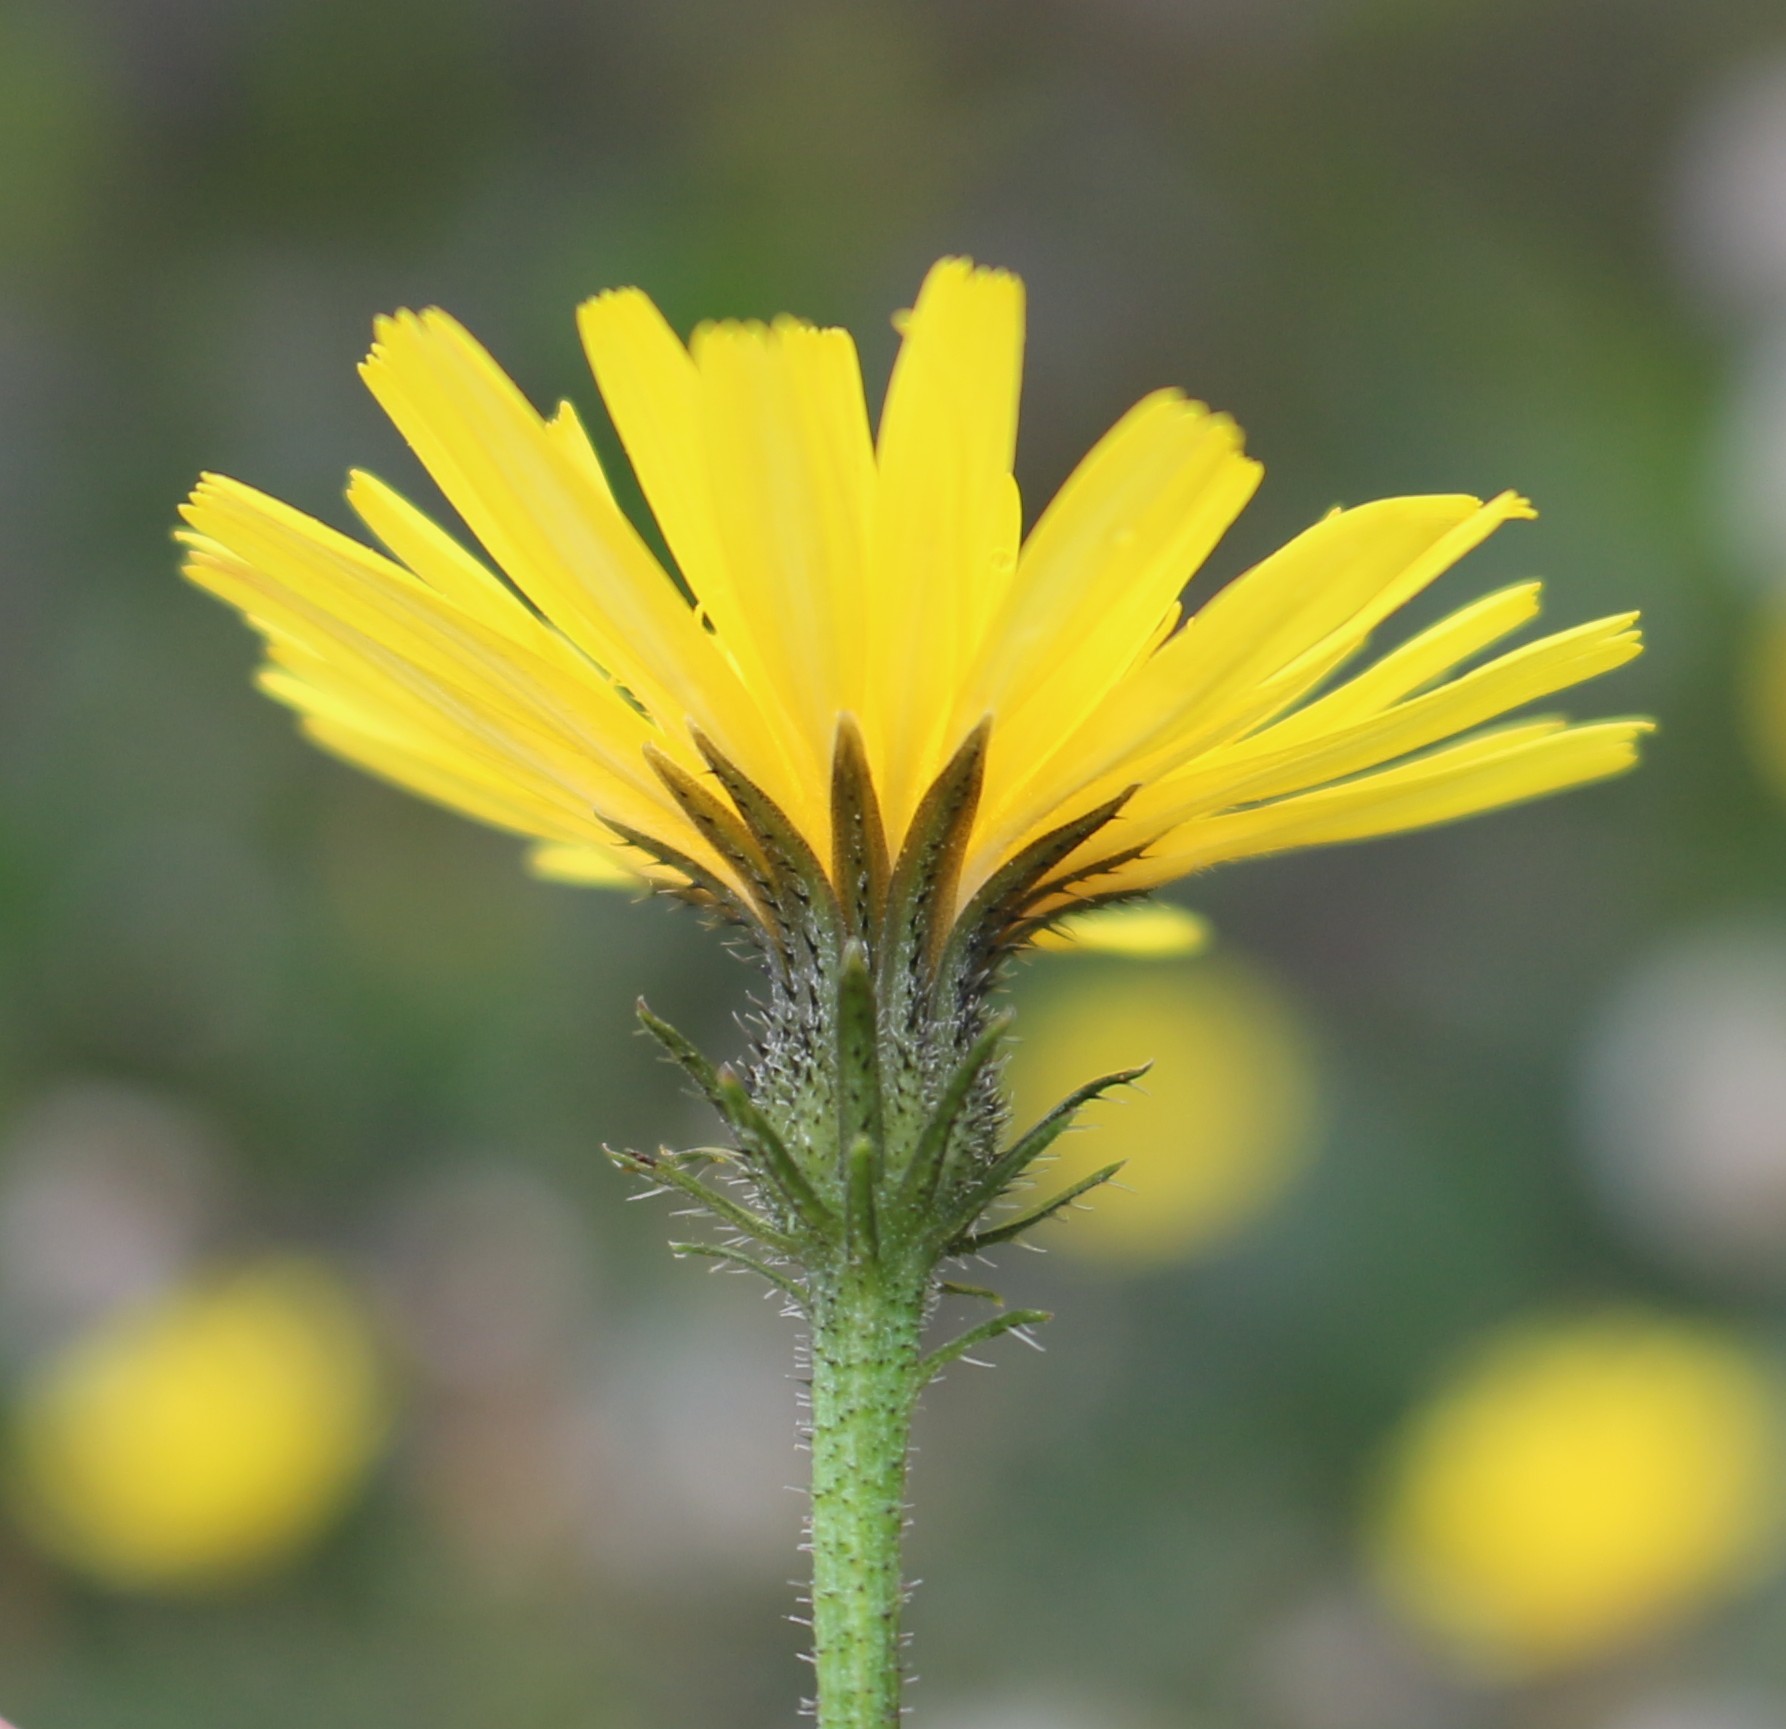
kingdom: Plantae
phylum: Tracheophyta
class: Magnoliopsida
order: Asterales
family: Asteraceae
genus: Picris
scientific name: Picris hieracioides
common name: Hawkweed oxtongue
